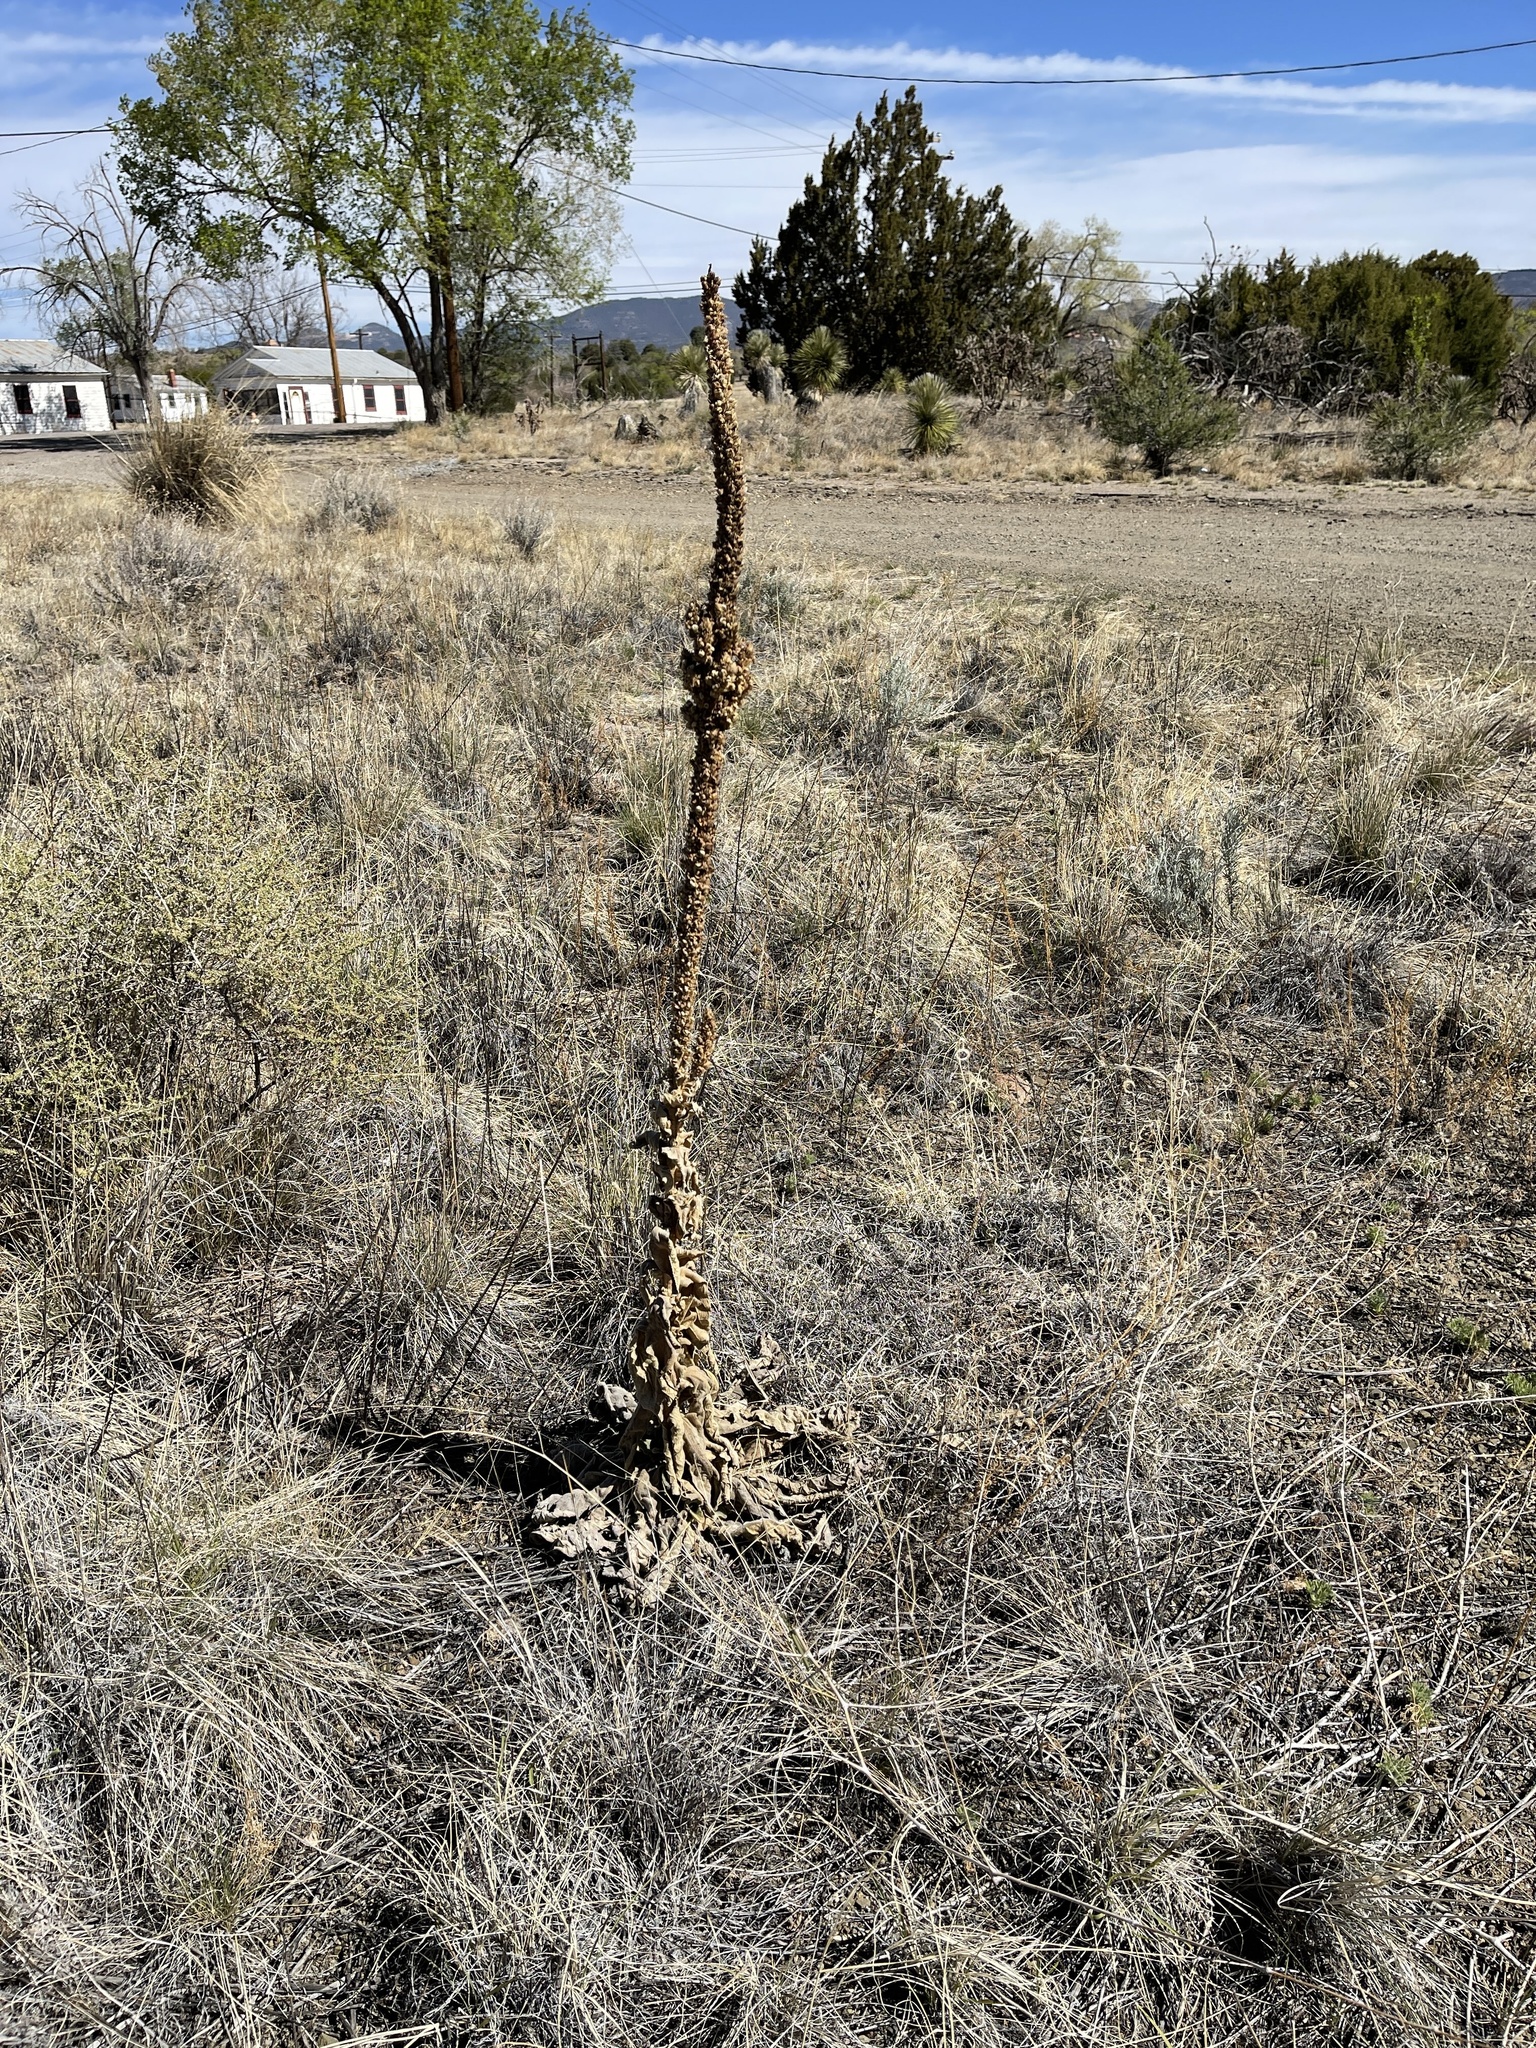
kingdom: Plantae
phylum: Tracheophyta
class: Magnoliopsida
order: Lamiales
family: Scrophulariaceae
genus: Verbascum
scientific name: Verbascum thapsus
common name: Common mullein
